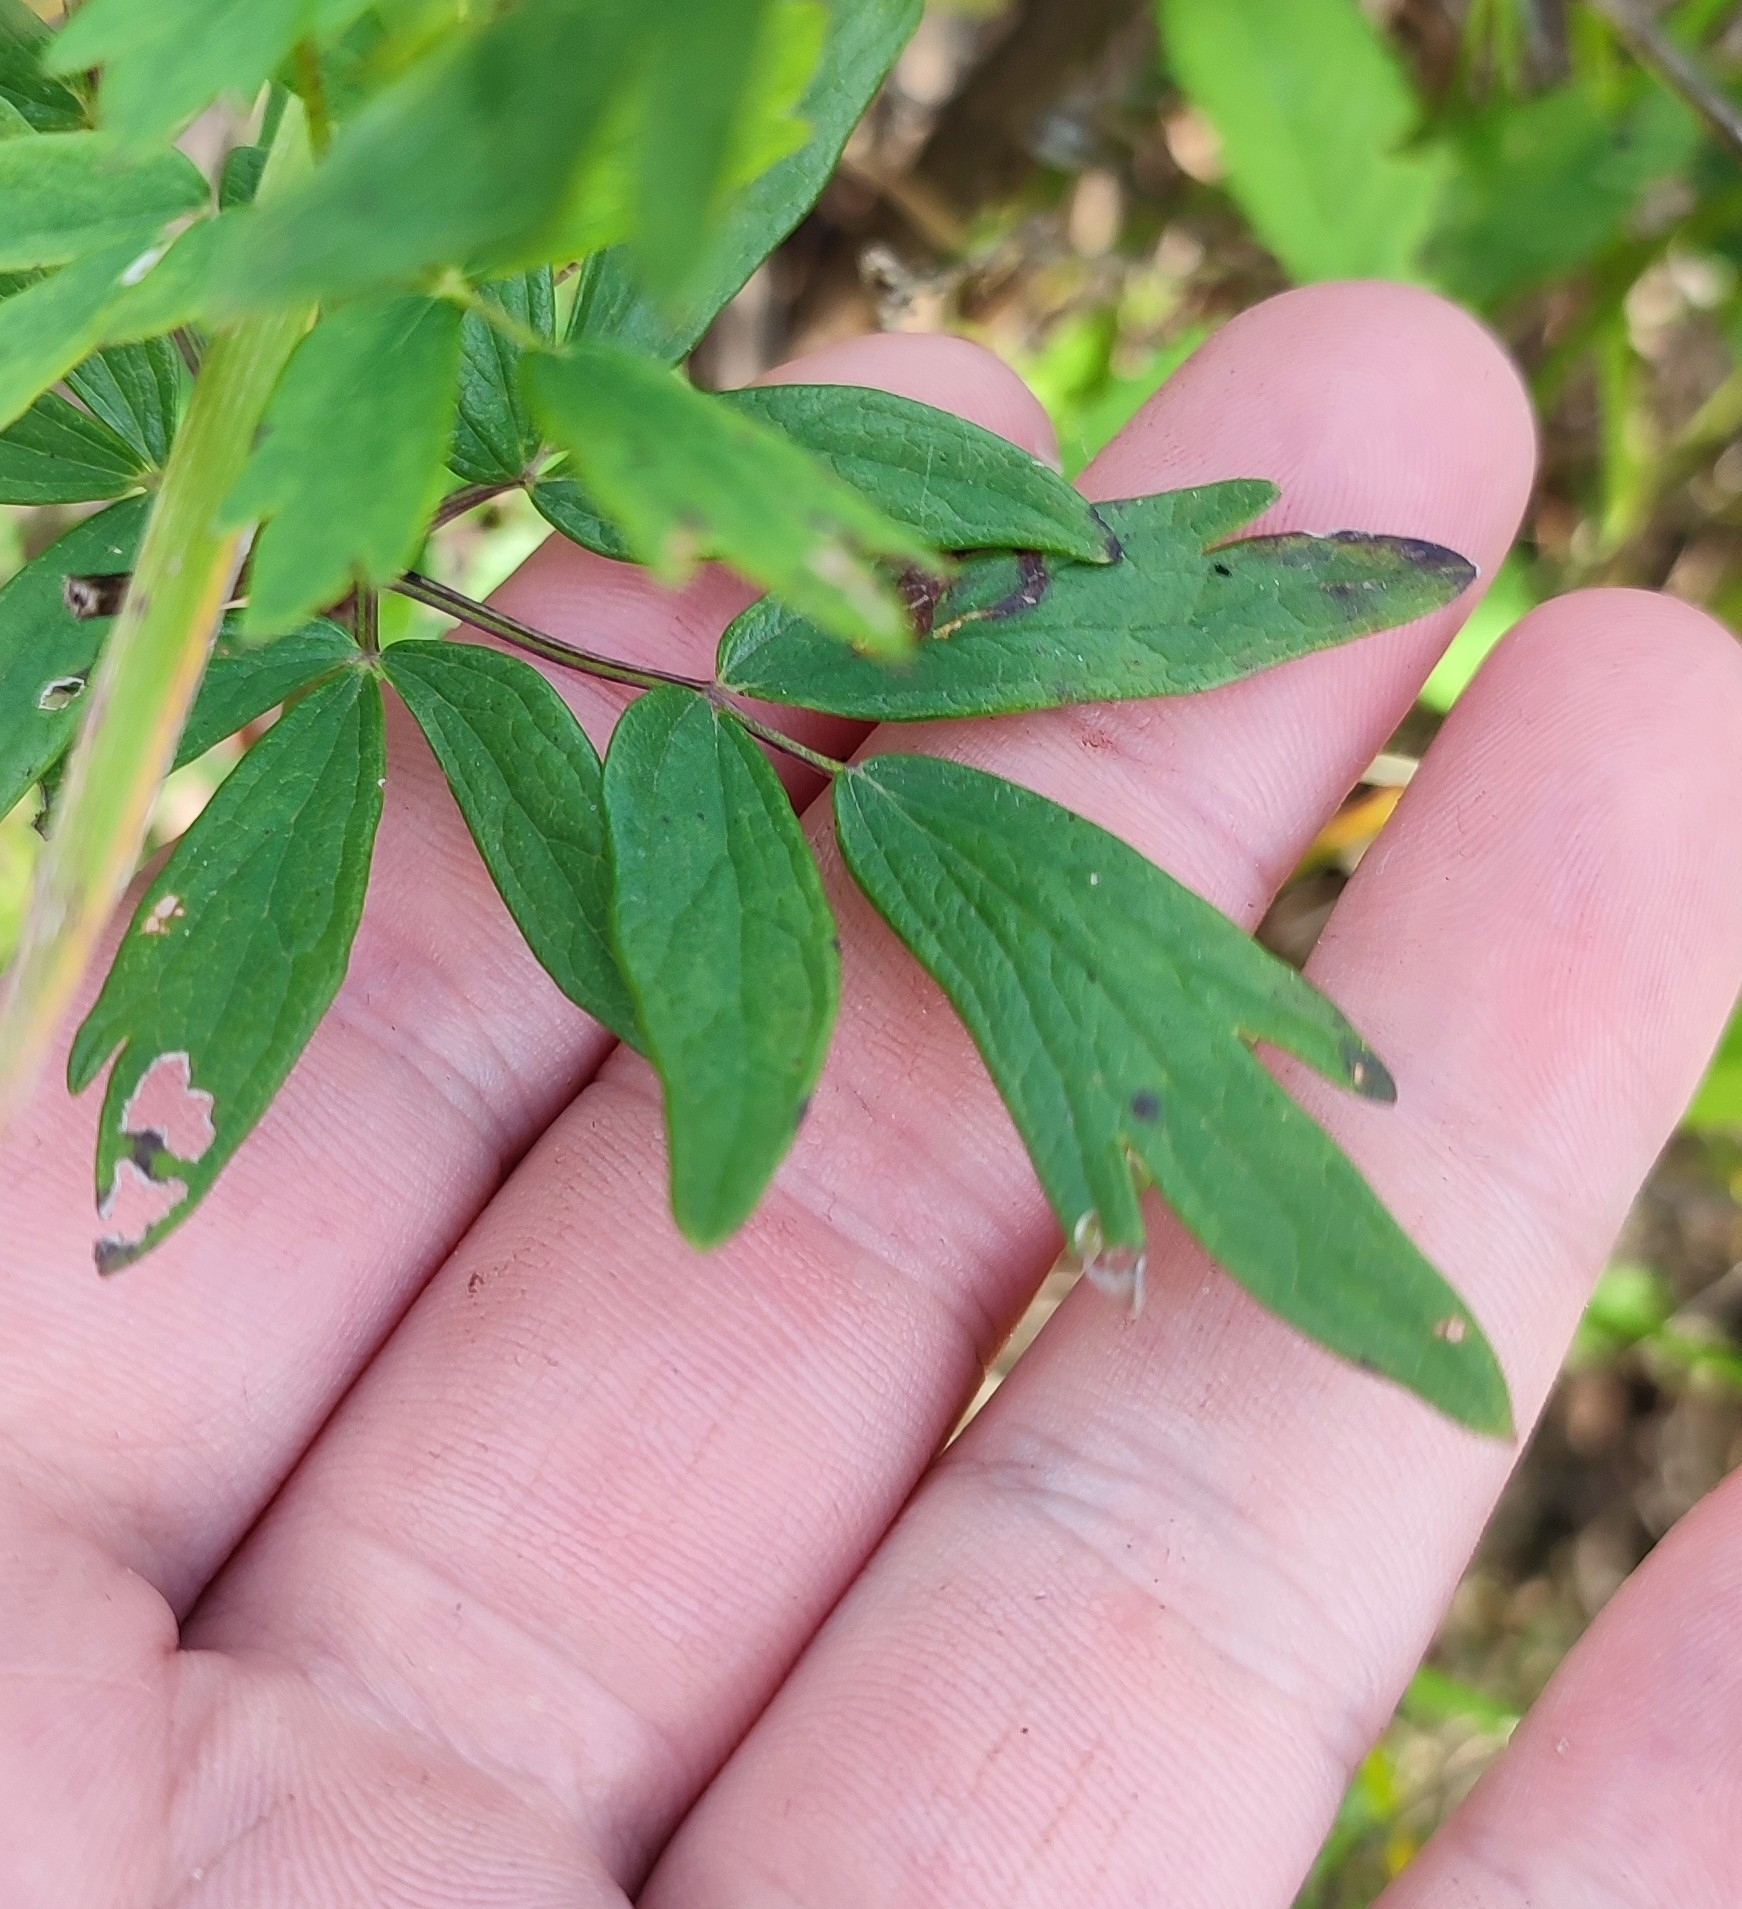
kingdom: Plantae
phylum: Tracheophyta
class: Magnoliopsida
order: Ranunculales
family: Ranunculaceae
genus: Thalictrum
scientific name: Thalictrum simplex
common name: Small meadow-rue
